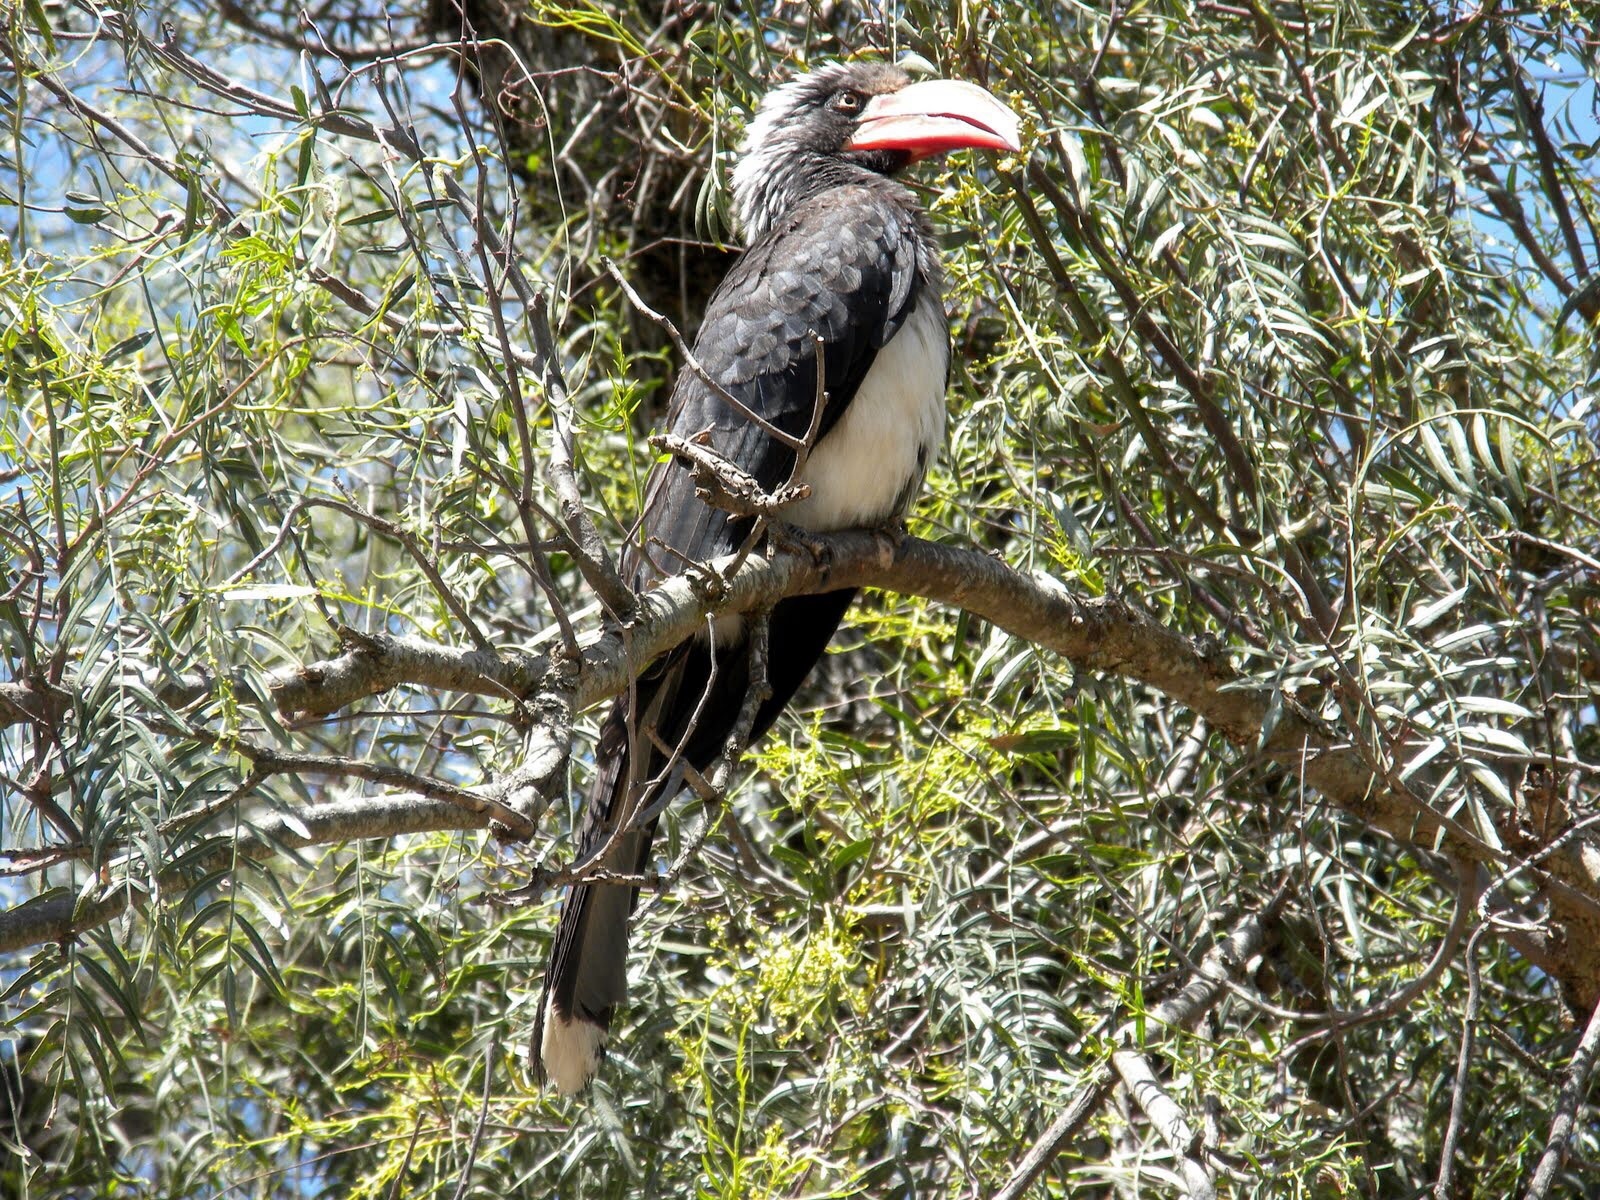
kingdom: Animalia
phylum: Chordata
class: Aves
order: Bucerotiformes
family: Bucerotidae
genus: Lophoceros
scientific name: Lophoceros alboterminatus
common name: Crowned hornbill
